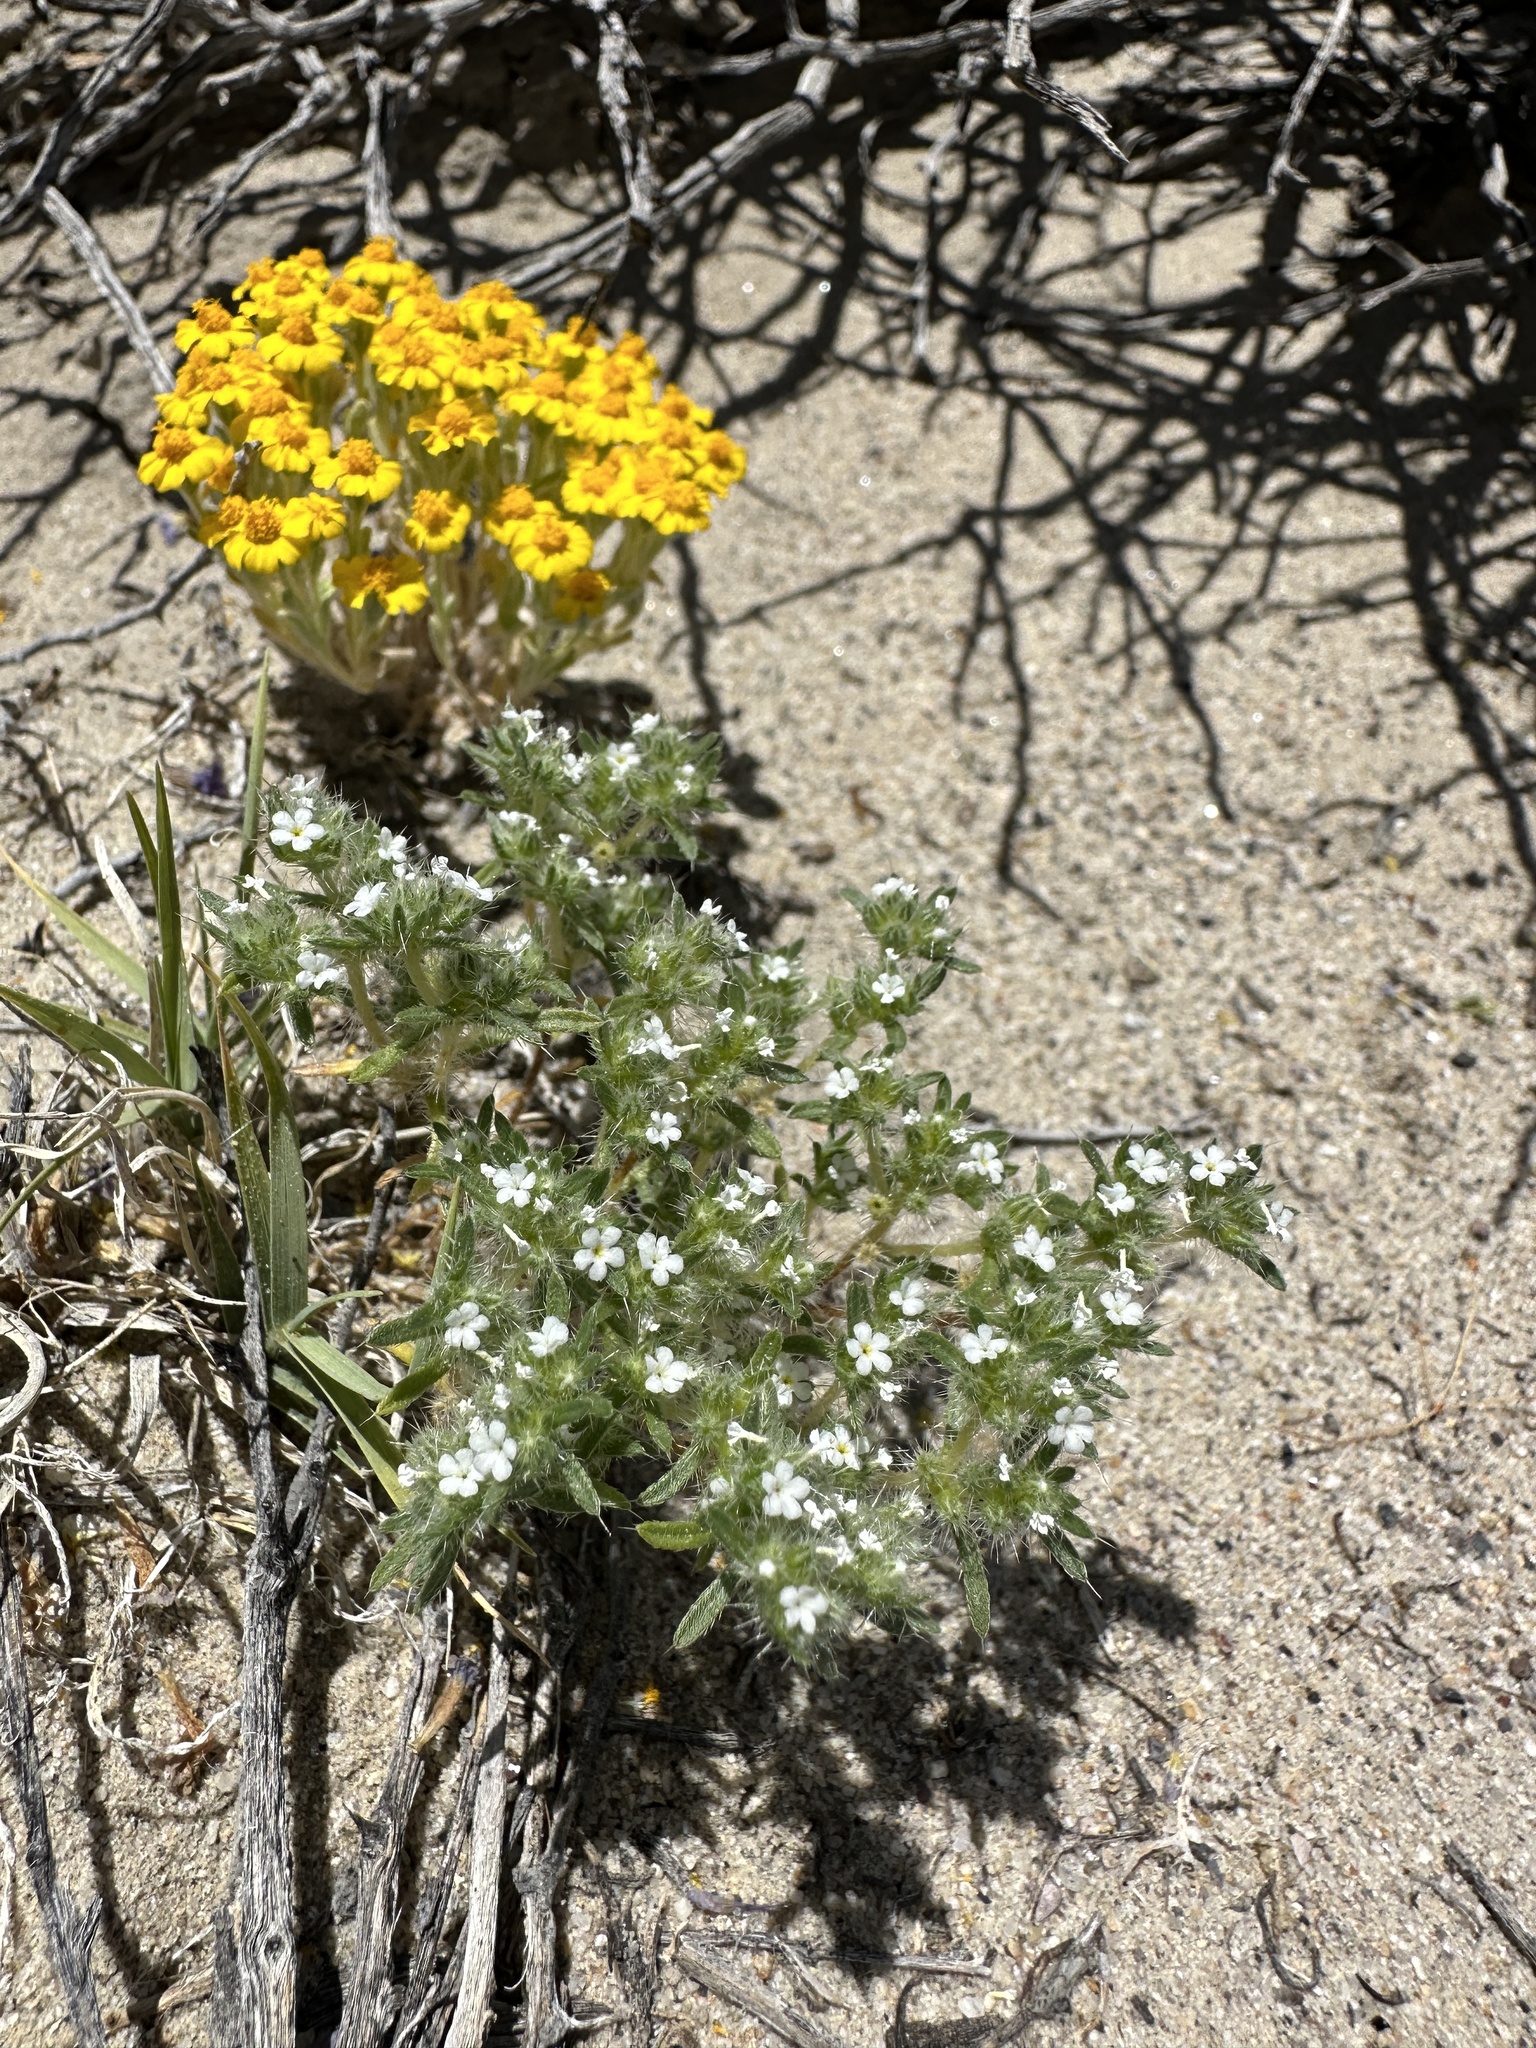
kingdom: Plantae
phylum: Tracheophyta
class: Magnoliopsida
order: Boraginales
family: Boraginaceae
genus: Greeneocharis
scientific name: Greeneocharis circumscissa
